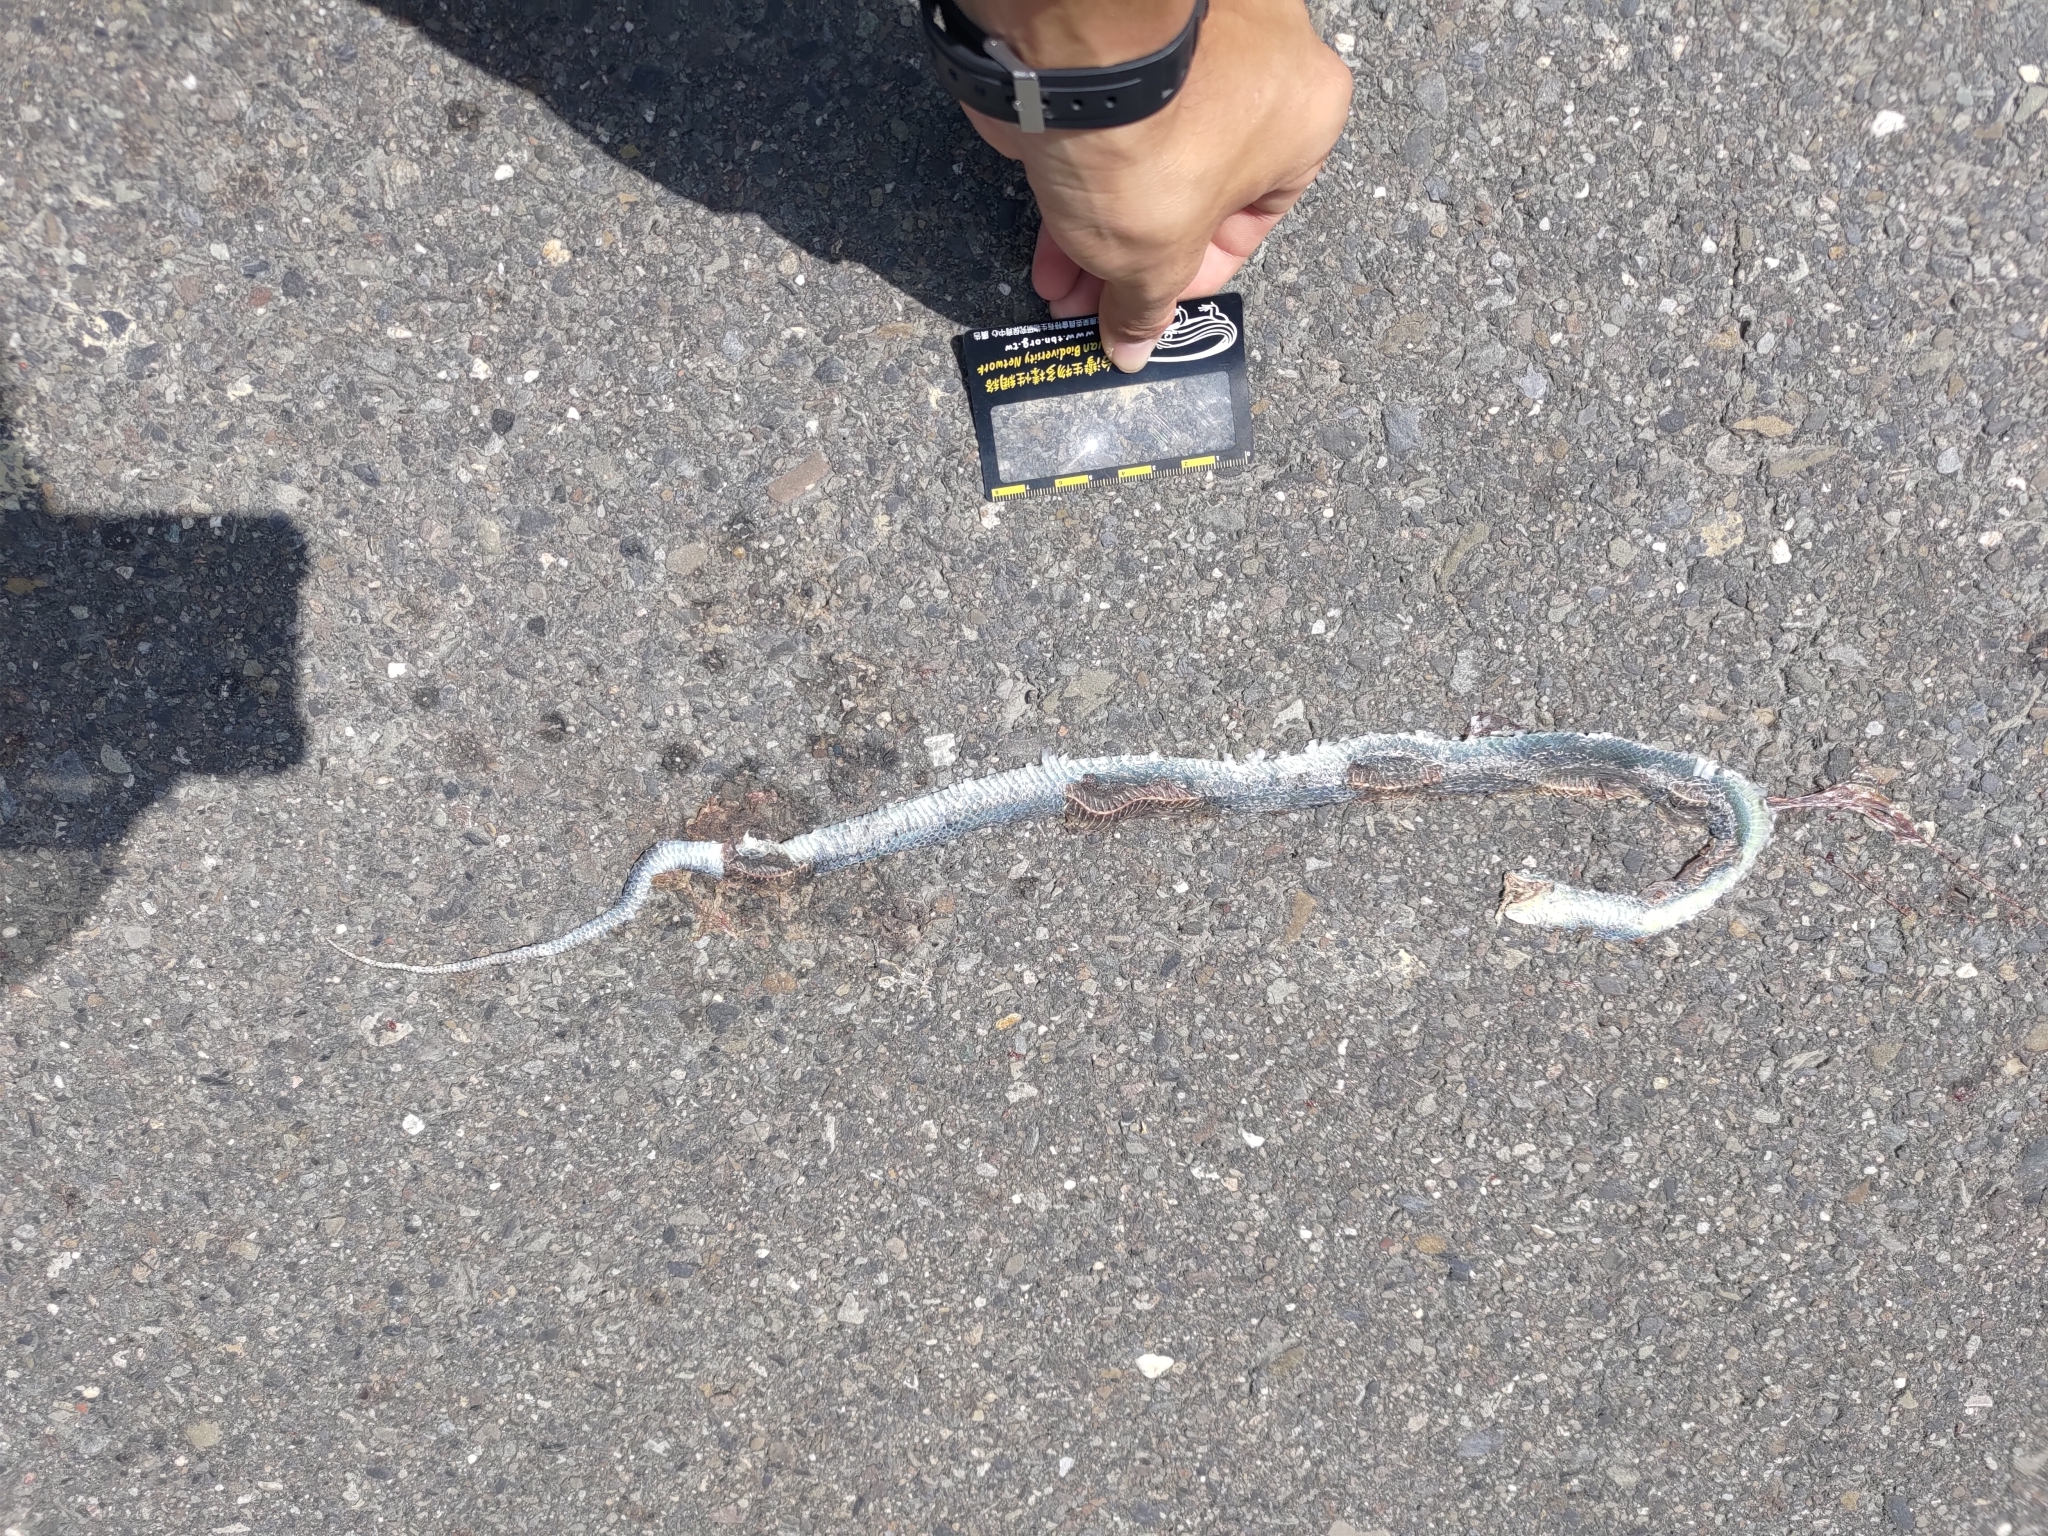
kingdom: Animalia
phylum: Chordata
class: Squamata
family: Colubridae
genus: Ptyas
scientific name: Ptyas major
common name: Chinese green snake
